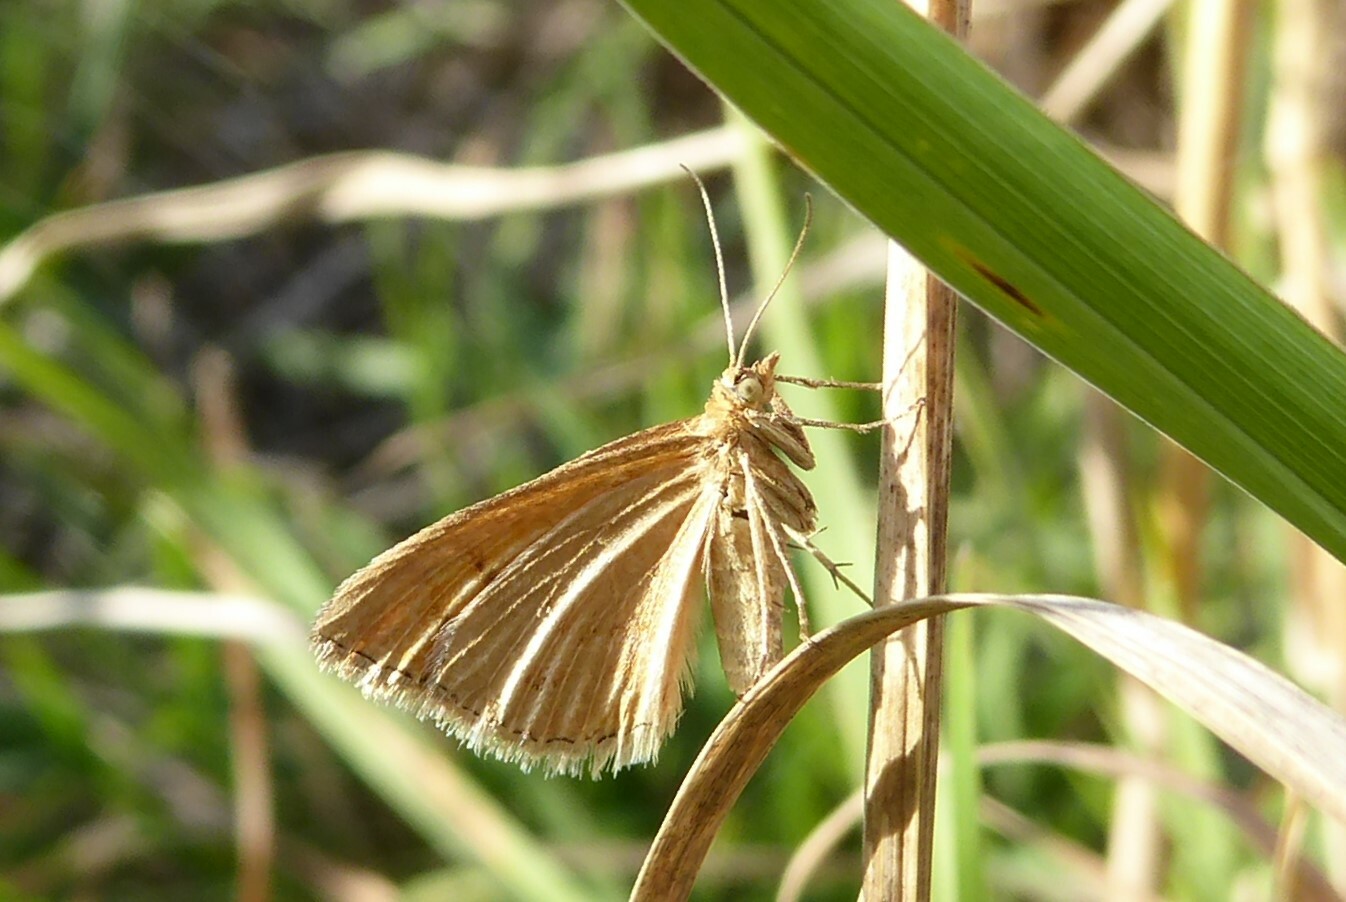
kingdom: Animalia
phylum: Arthropoda
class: Insecta
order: Lepidoptera
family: Geometridae
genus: Asaphodes
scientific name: Asaphodes abrogata
